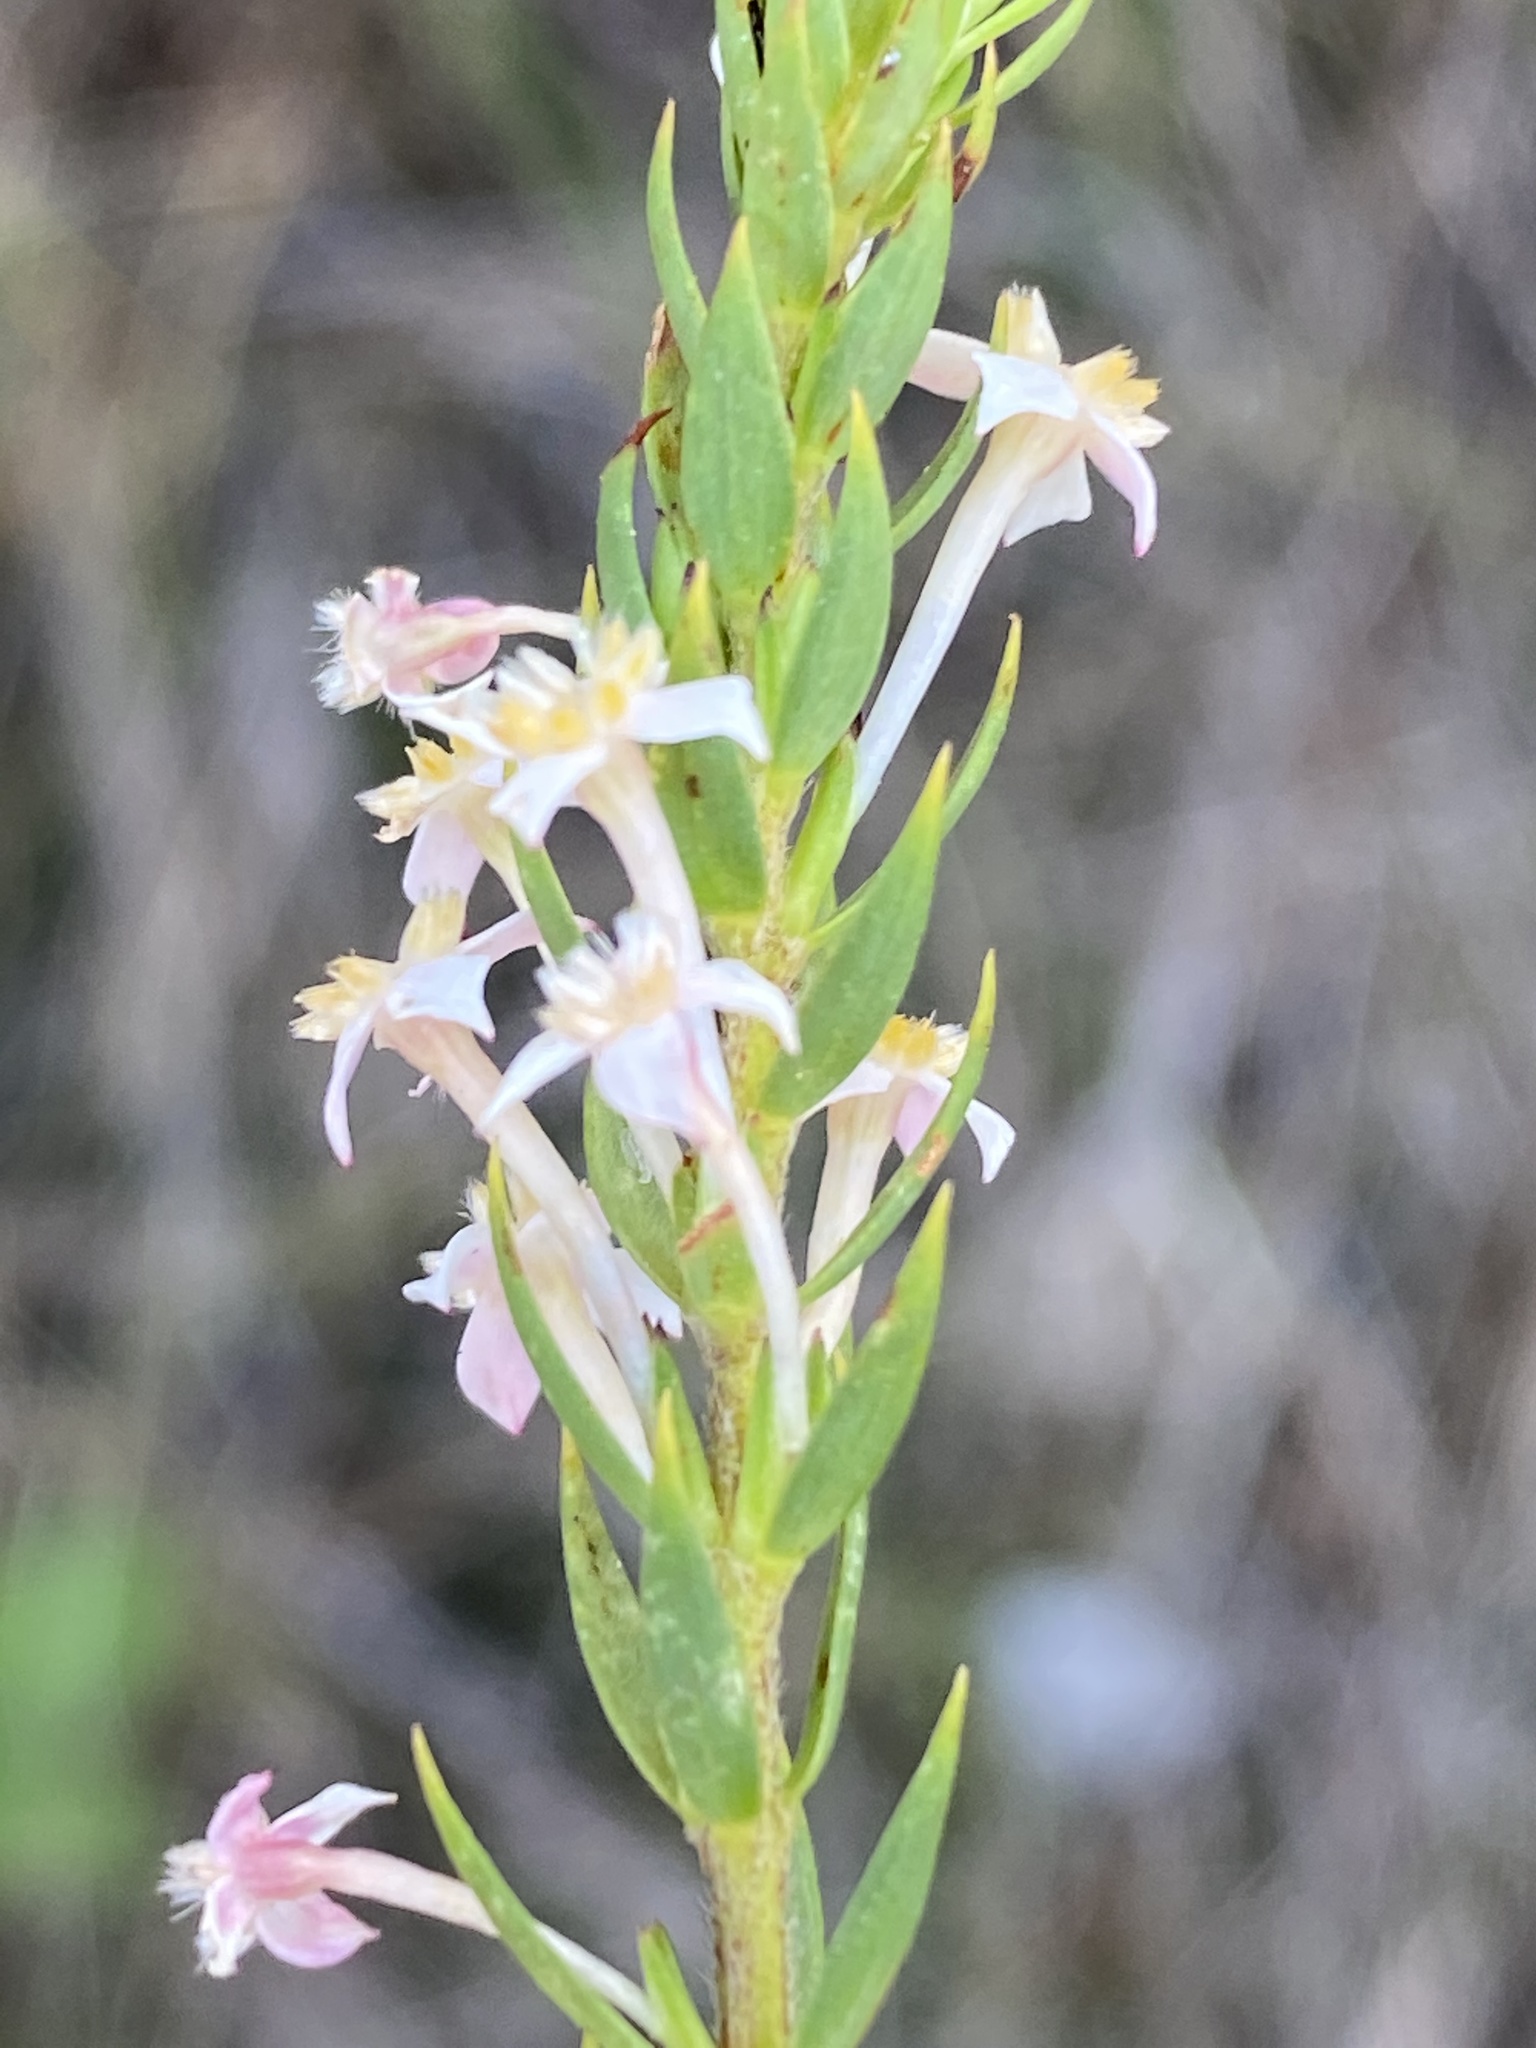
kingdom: Plantae
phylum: Tracheophyta
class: Magnoliopsida
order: Malvales
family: Thymelaeaceae
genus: Struthiola
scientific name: Struthiola salteri
